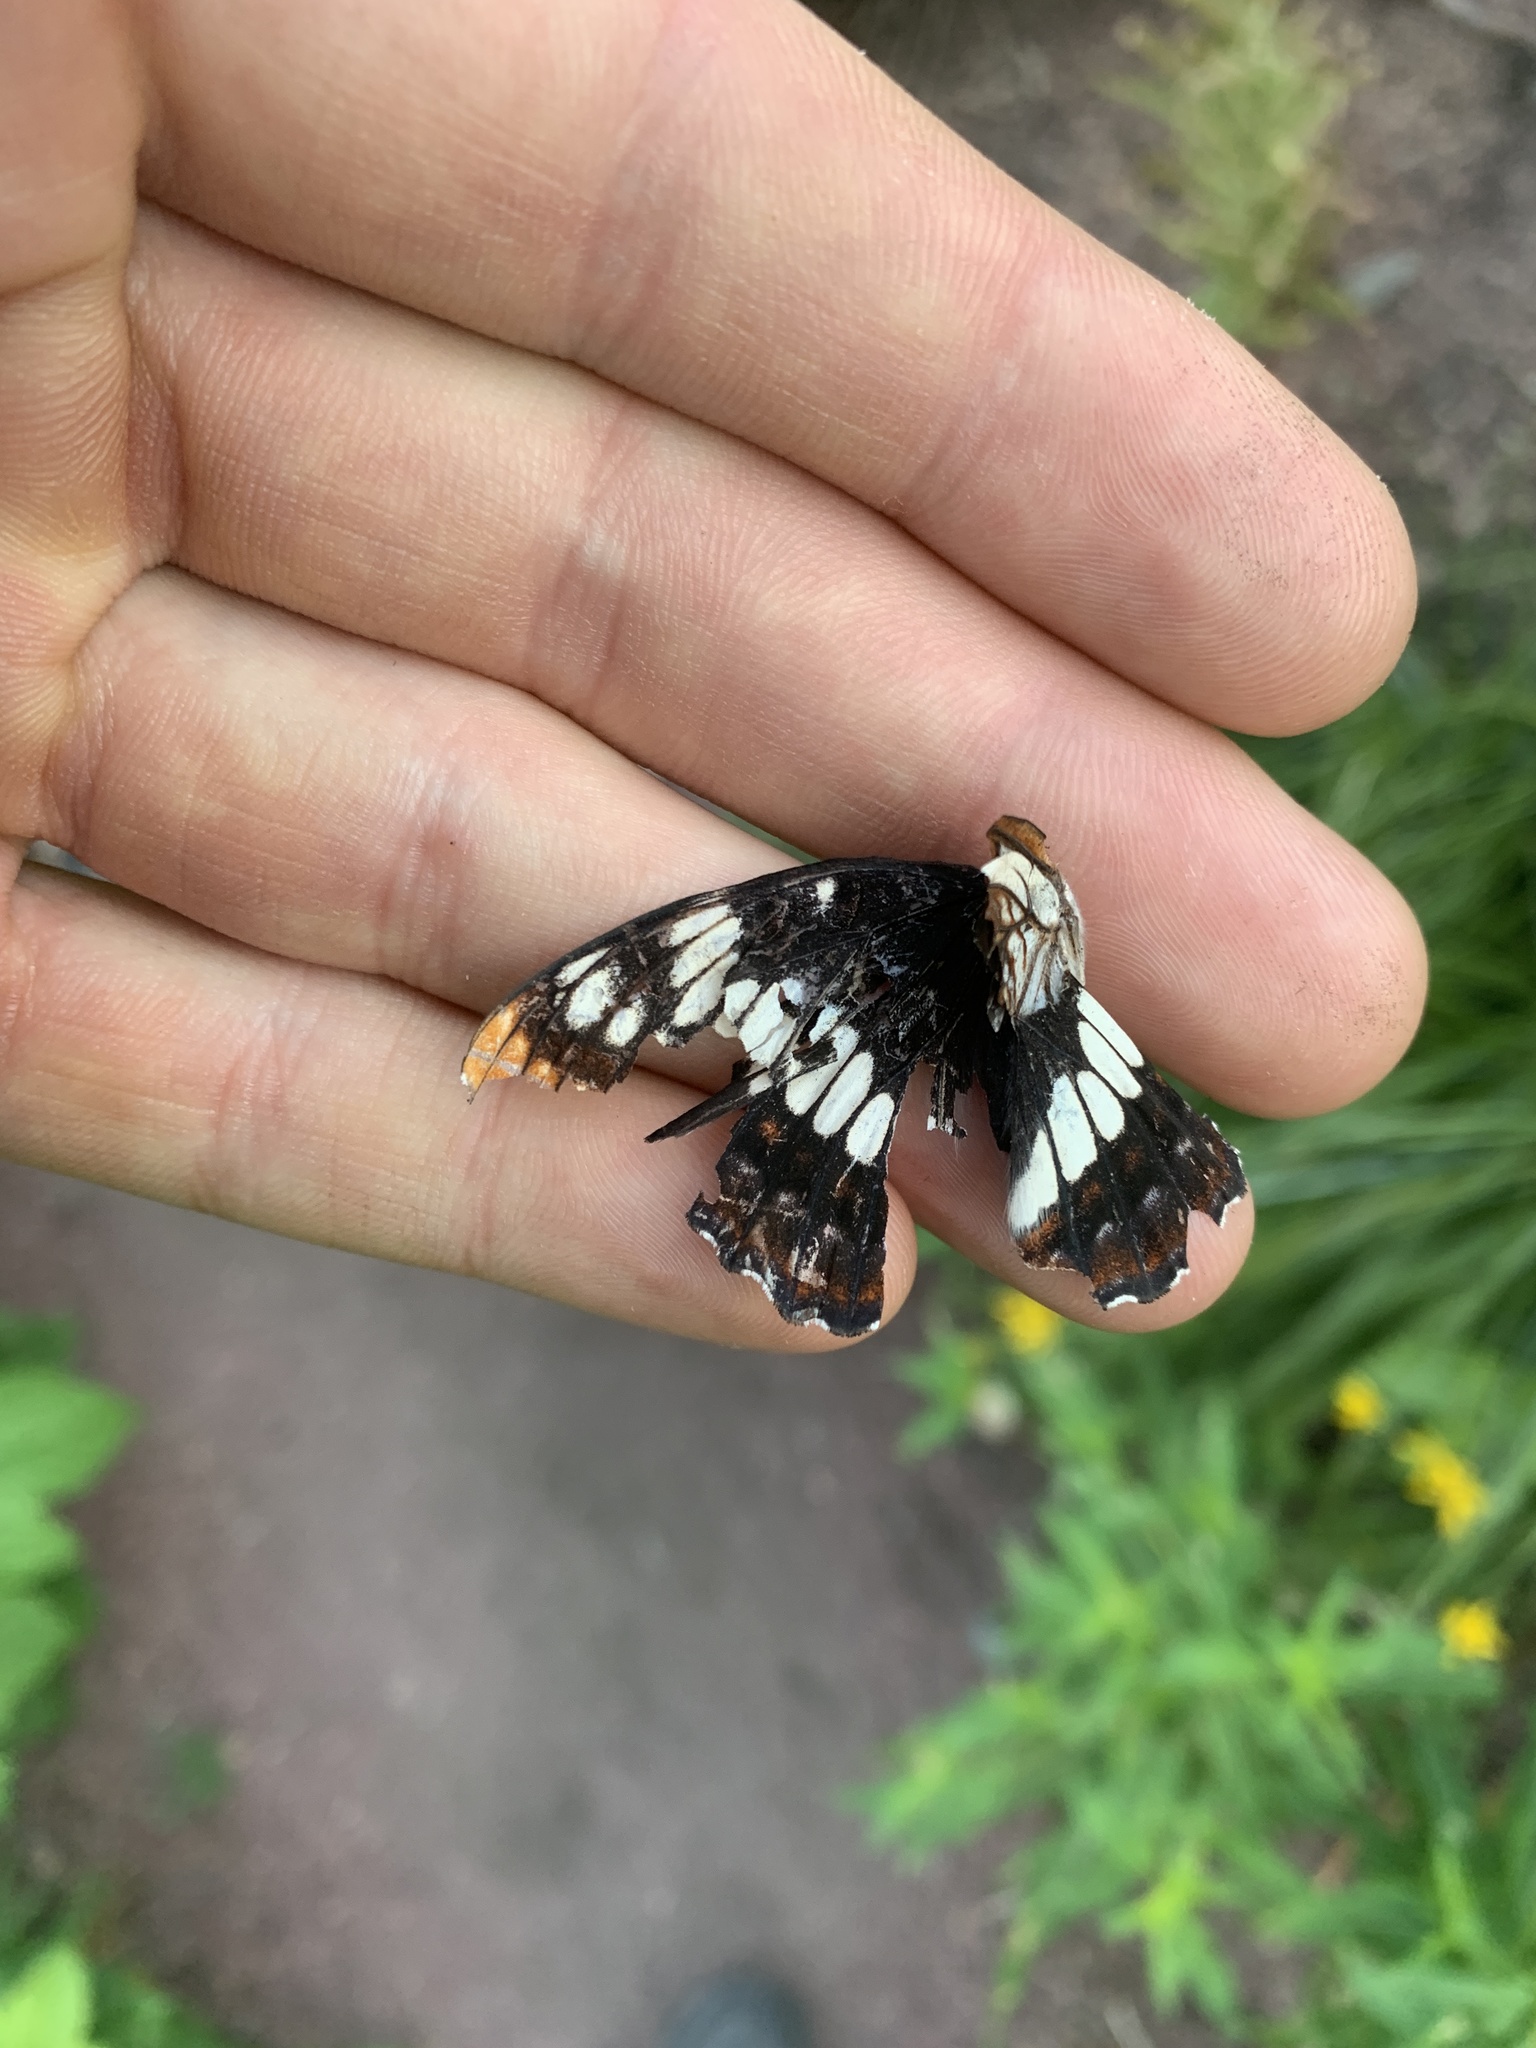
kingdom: Animalia
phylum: Arthropoda
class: Insecta
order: Lepidoptera
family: Nymphalidae
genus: Limenitis
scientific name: Limenitis lorquini
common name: Lorquin's admiral
